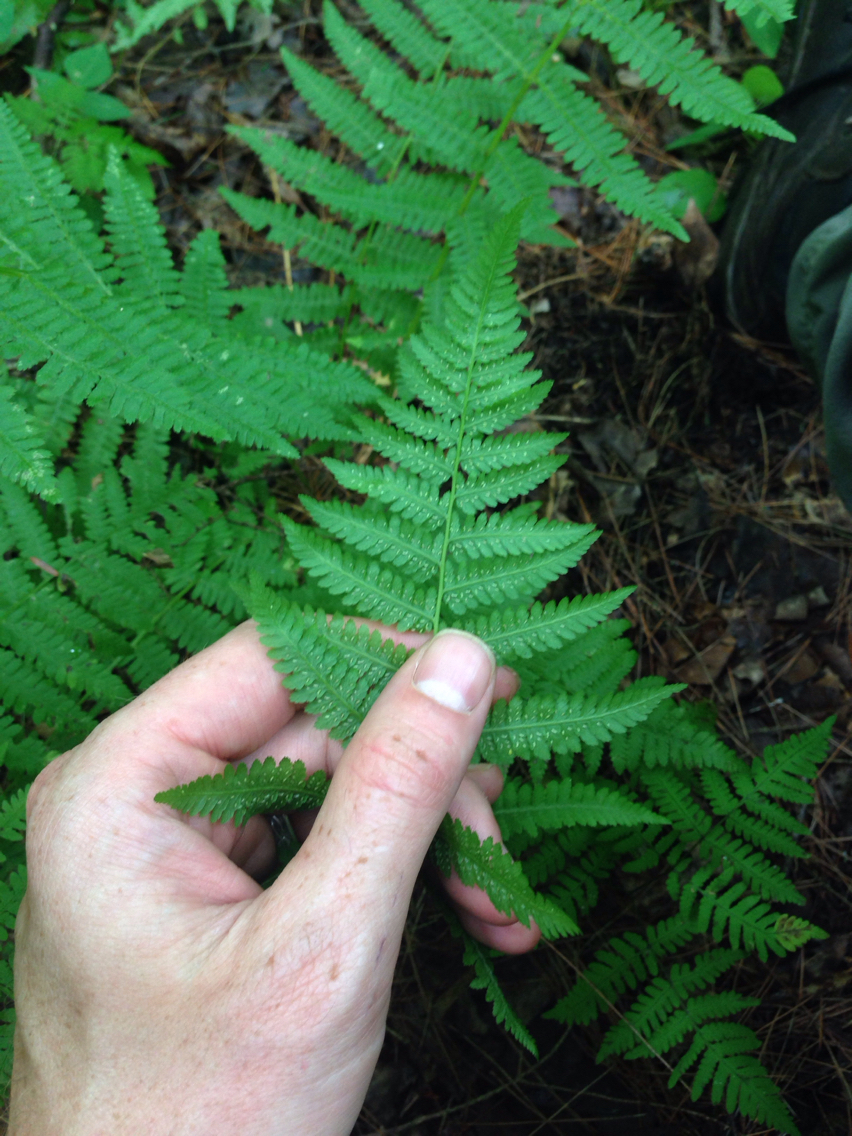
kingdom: Plantae
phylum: Tracheophyta
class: Polypodiopsida
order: Polypodiales
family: Athyriaceae
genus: Athyrium
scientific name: Athyrium angustum
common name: Northern lady fern
